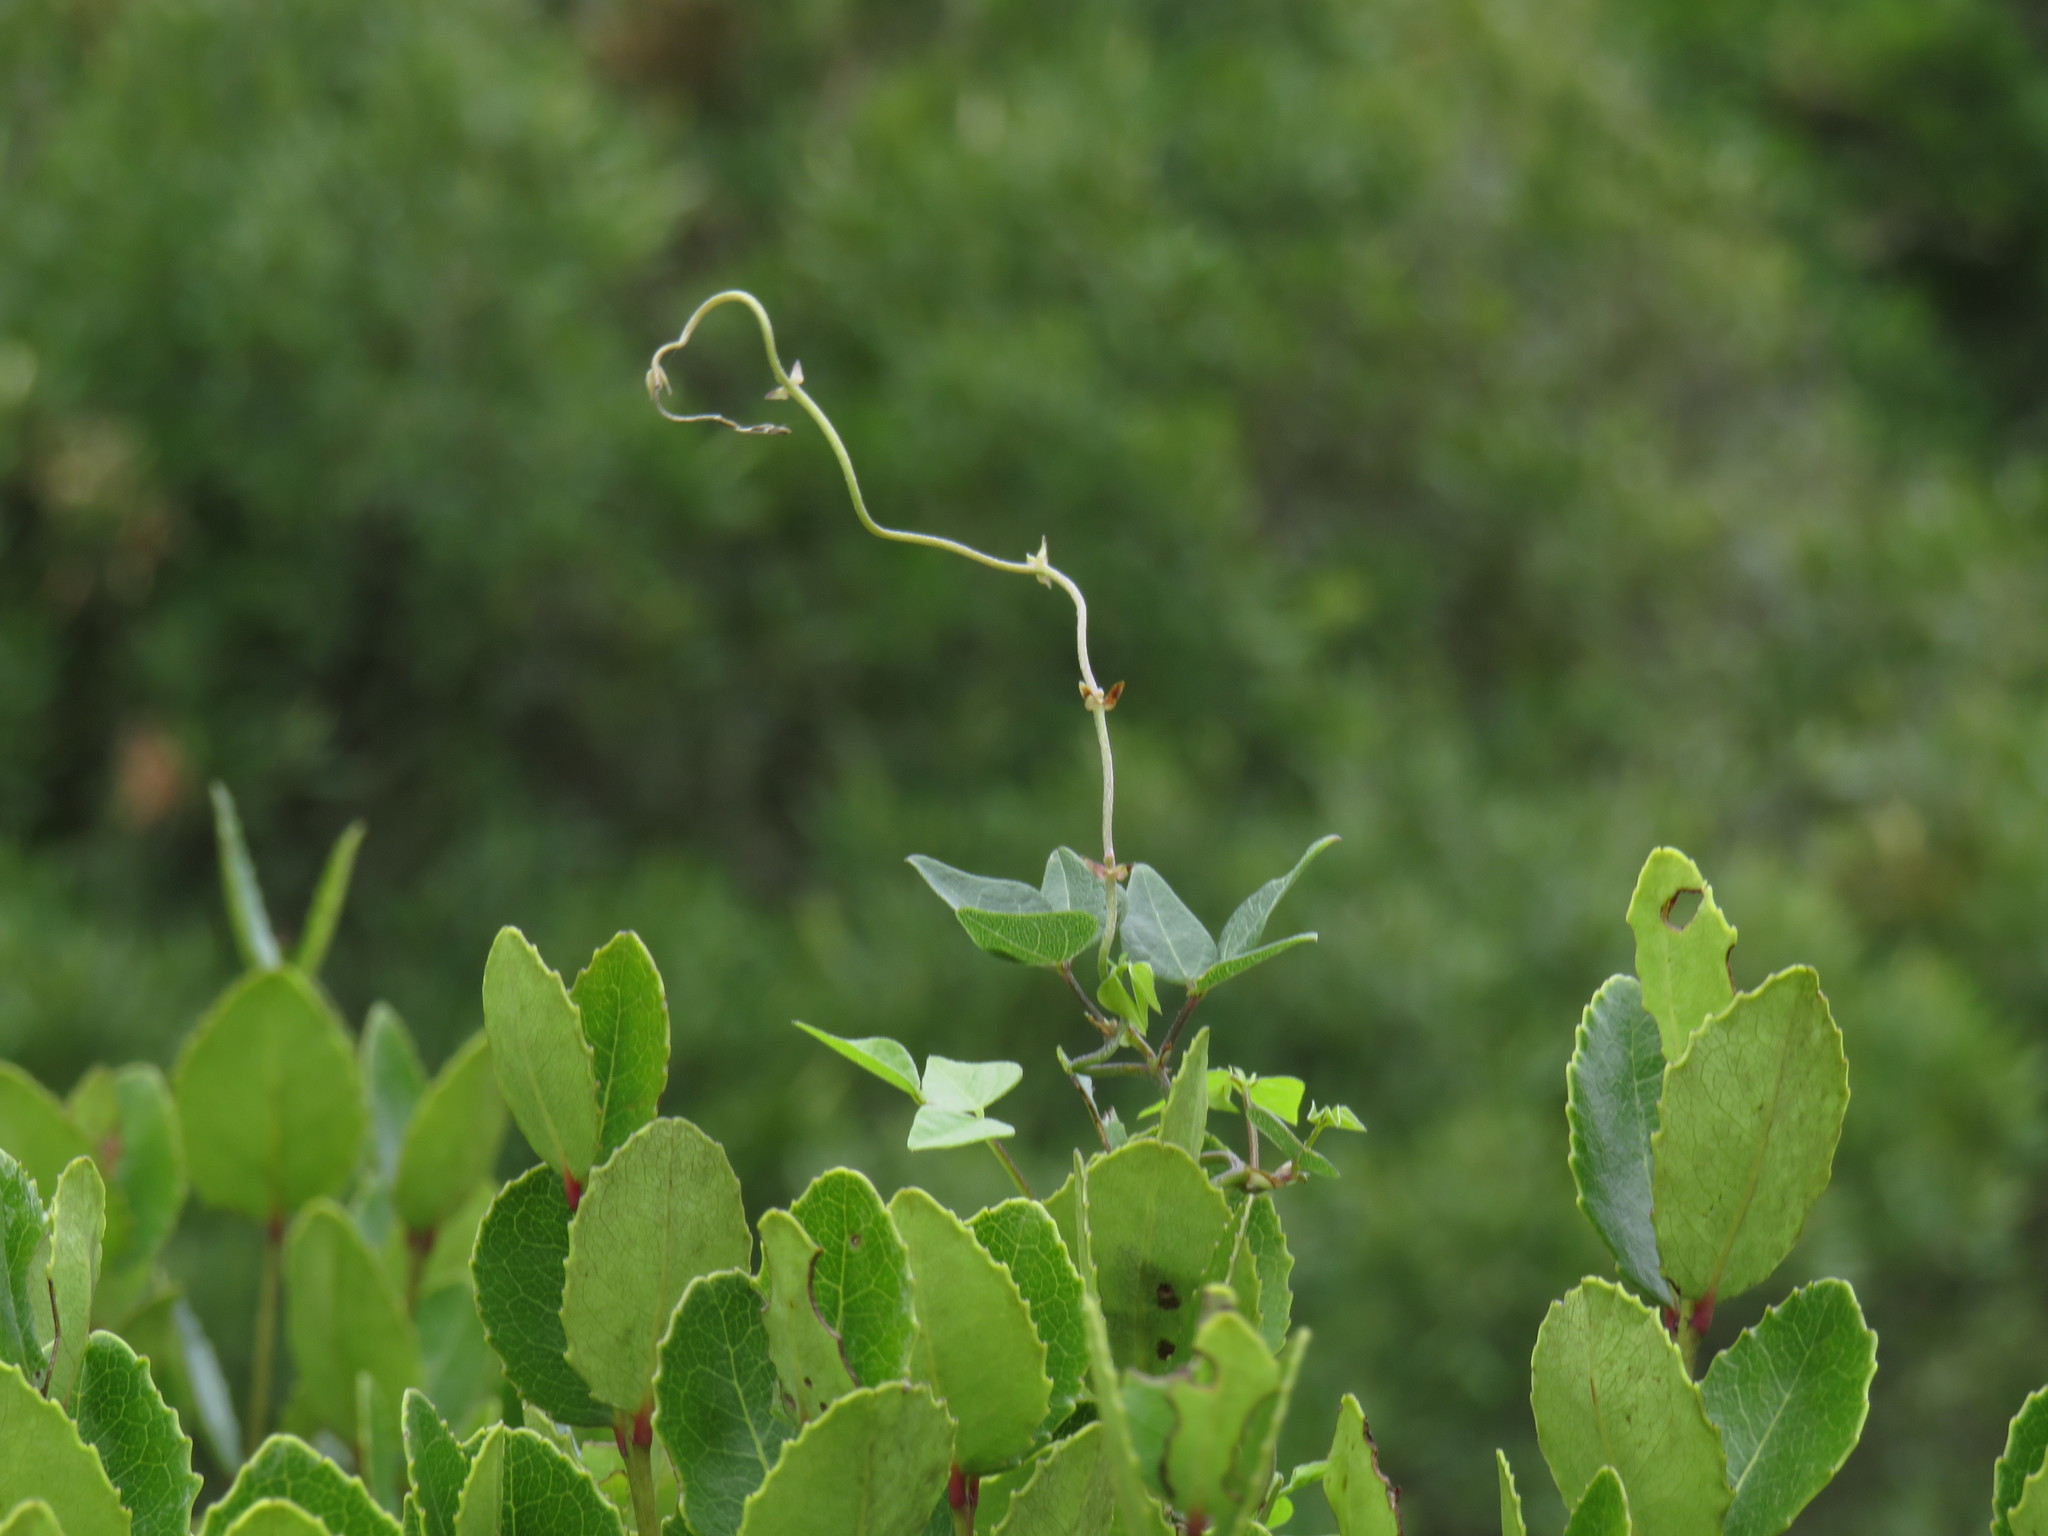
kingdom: Plantae
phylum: Tracheophyta
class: Magnoliopsida
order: Celastrales
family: Celastraceae
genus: Cassine
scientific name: Cassine peragua
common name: Cape saffron
